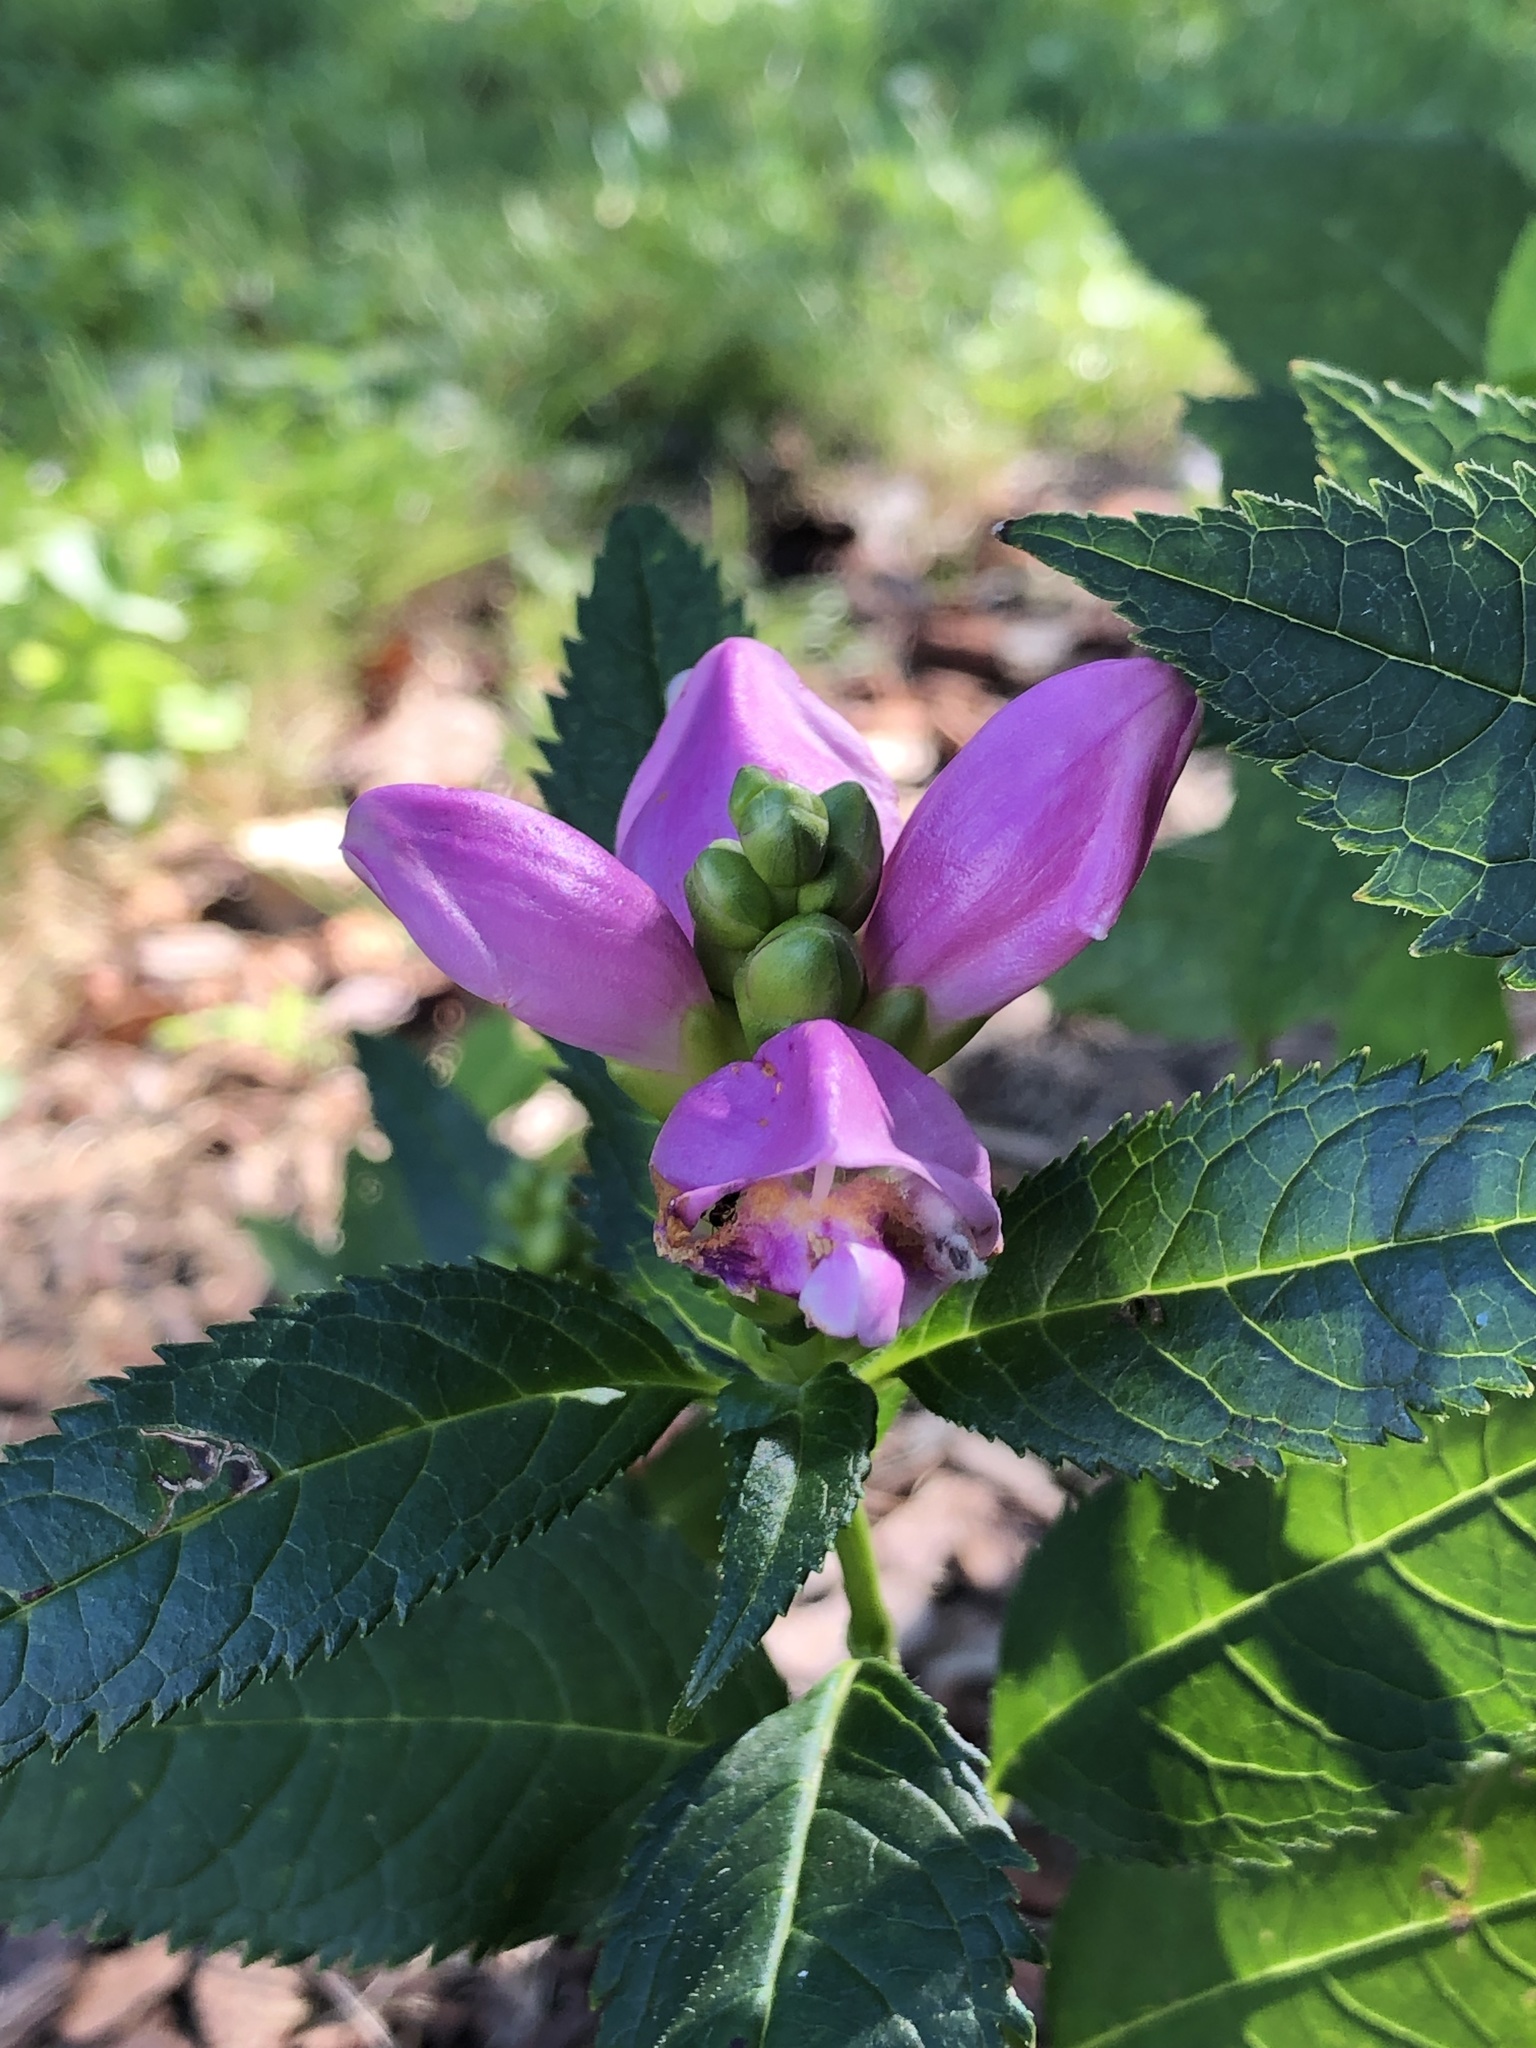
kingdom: Plantae
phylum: Tracheophyta
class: Magnoliopsida
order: Lamiales
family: Plantaginaceae
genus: Chelone
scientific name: Chelone lyonii
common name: Pink turtlehead
